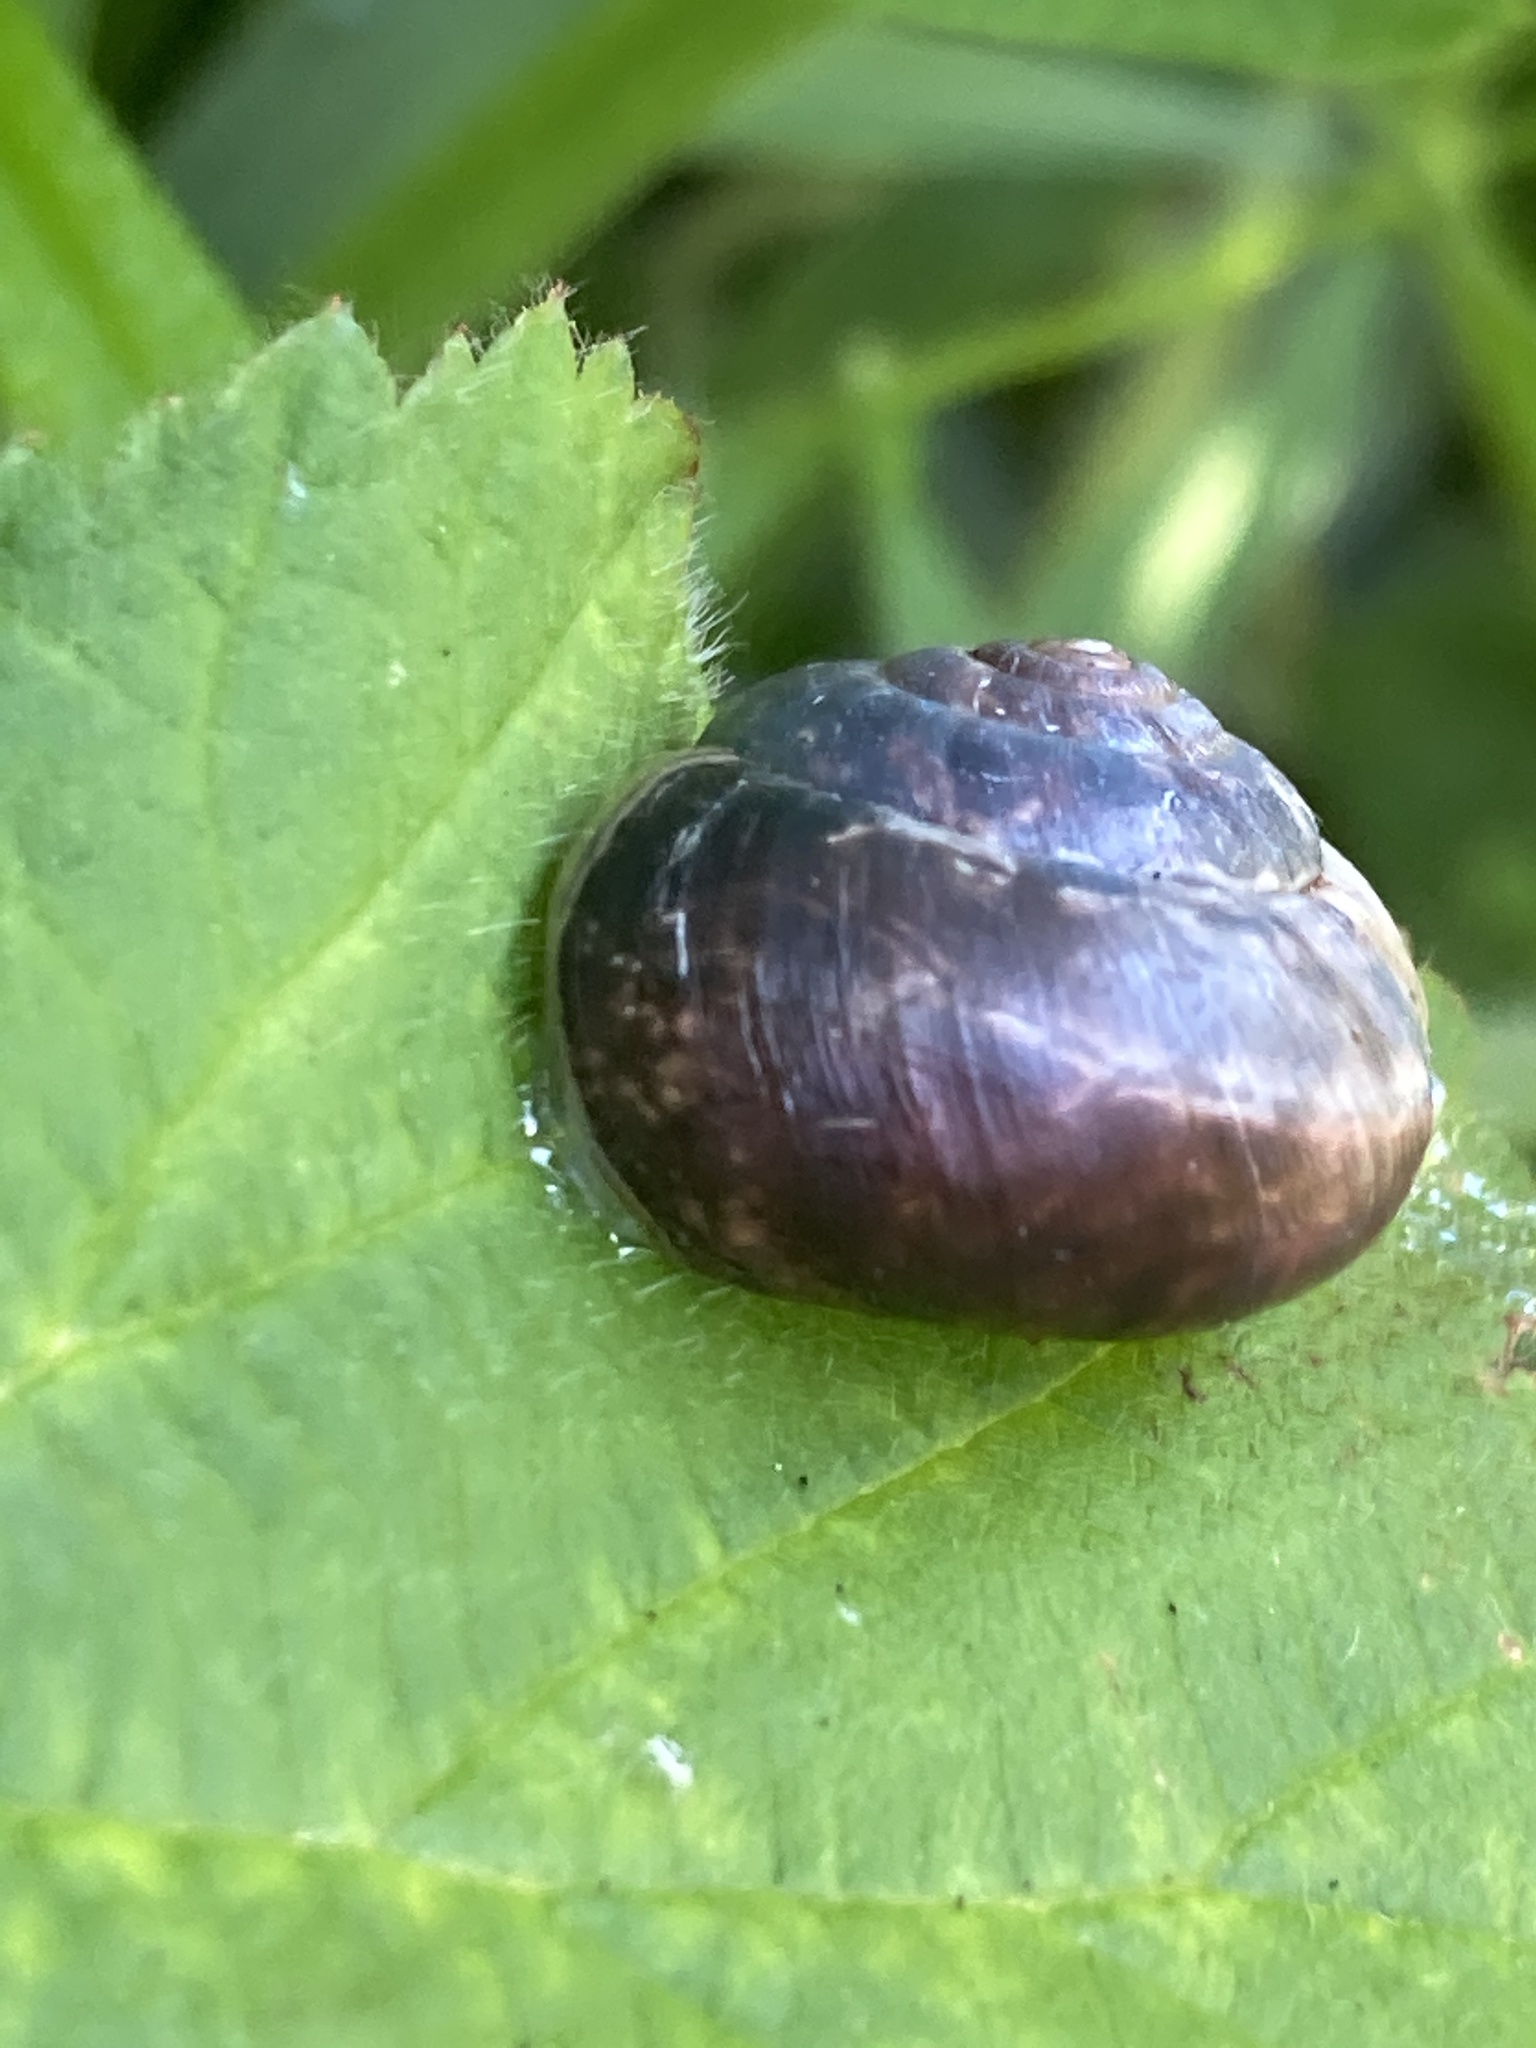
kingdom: Animalia
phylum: Mollusca
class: Gastropoda
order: Stylommatophora
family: Hygromiidae
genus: Monacha
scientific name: Monacha cantiana
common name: Kentish snail
